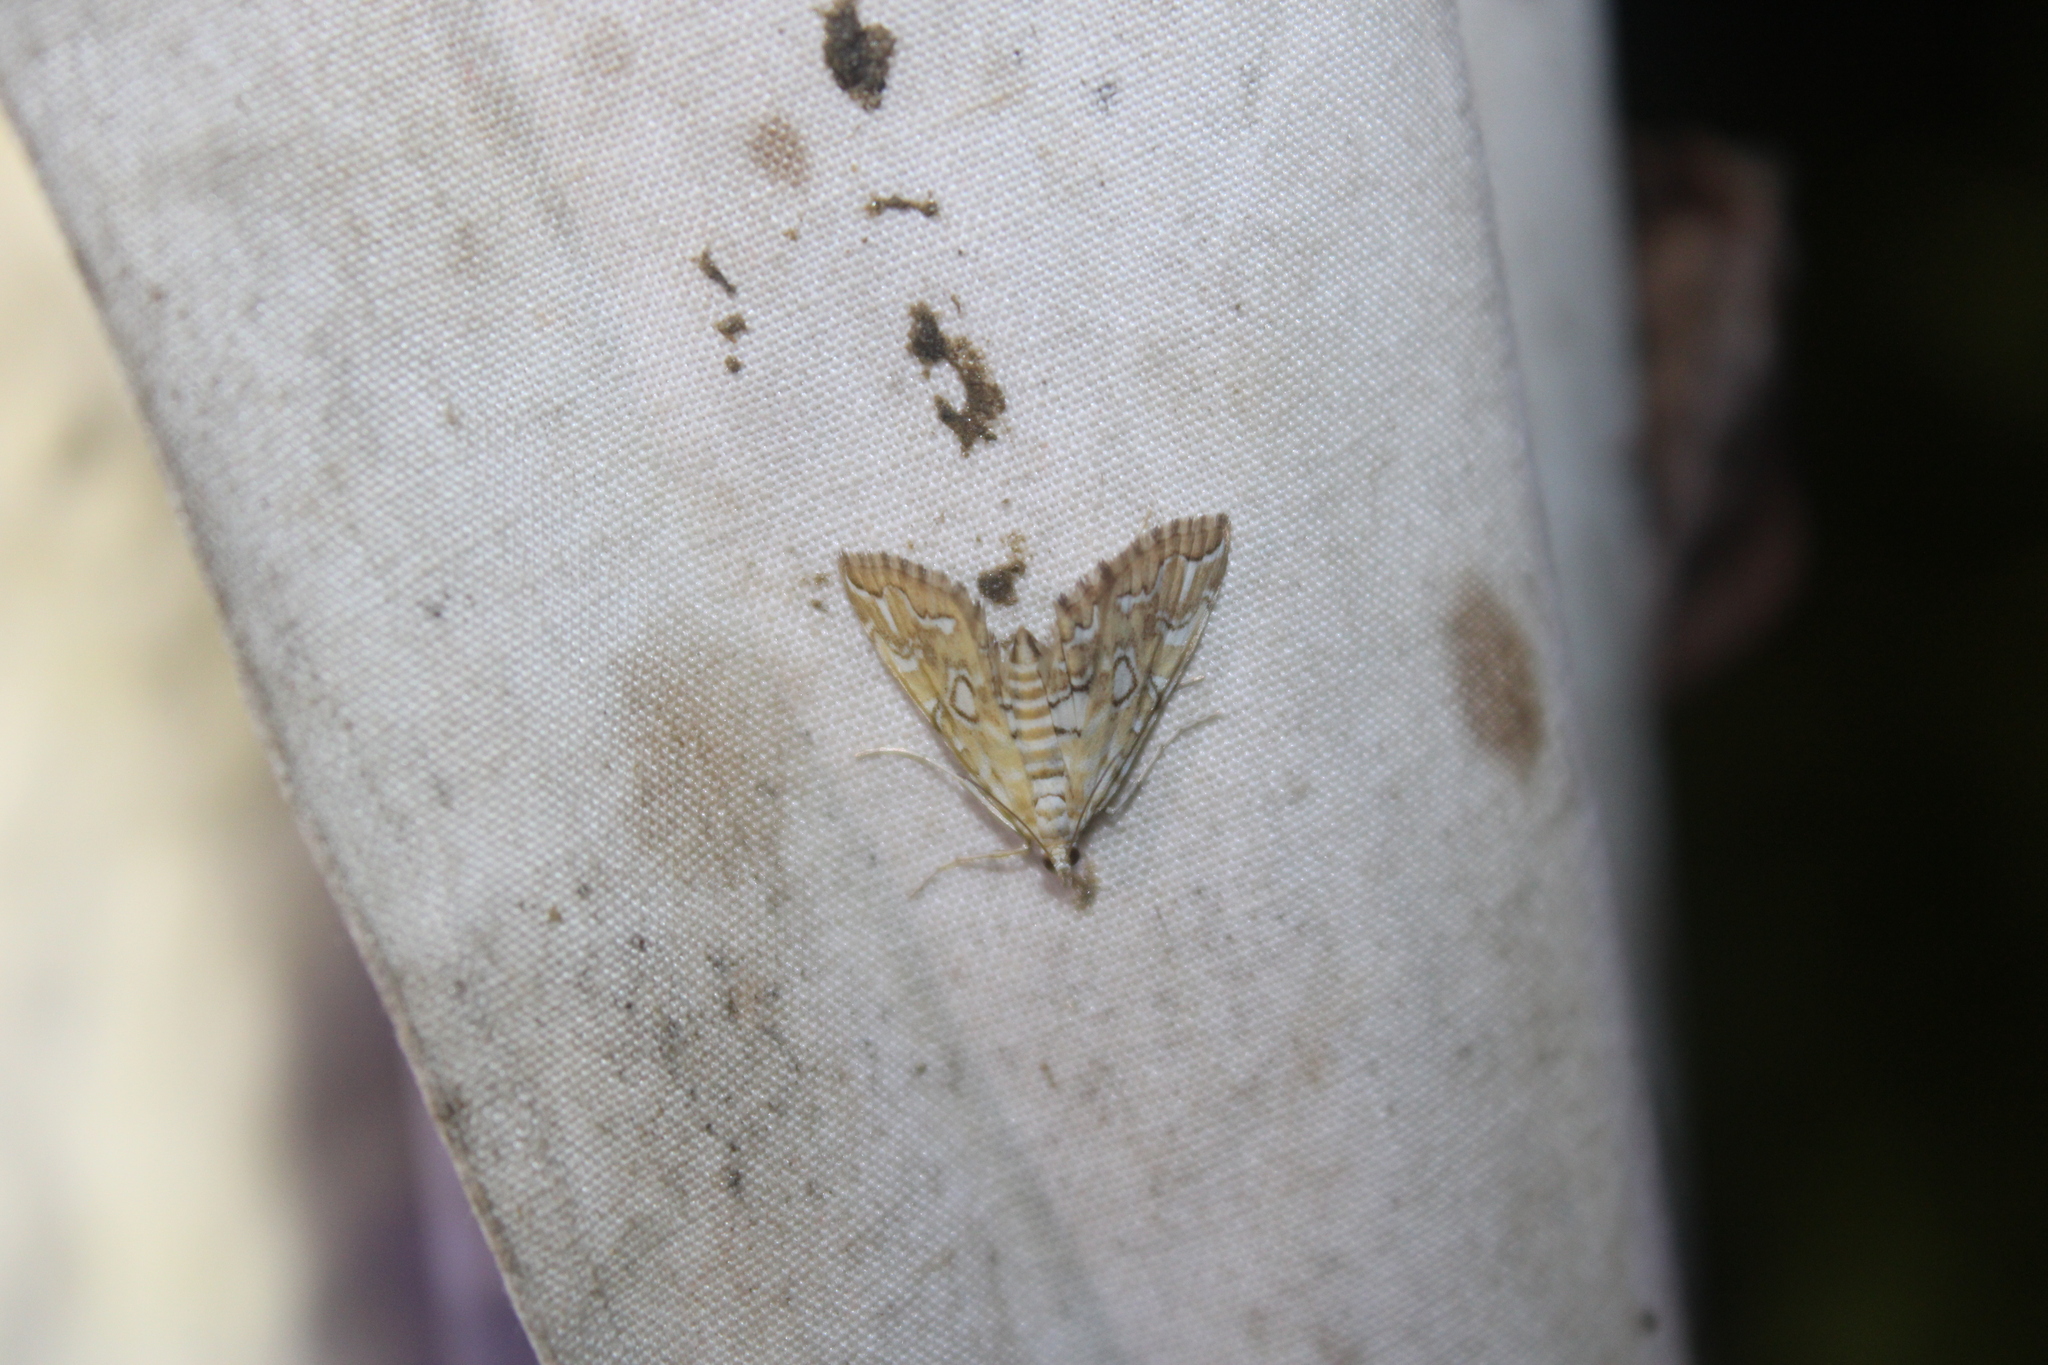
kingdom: Animalia
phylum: Arthropoda
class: Insecta
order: Lepidoptera
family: Crambidae
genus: Elophila
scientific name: Elophila icciusalis
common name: Pondside pyralid moth
